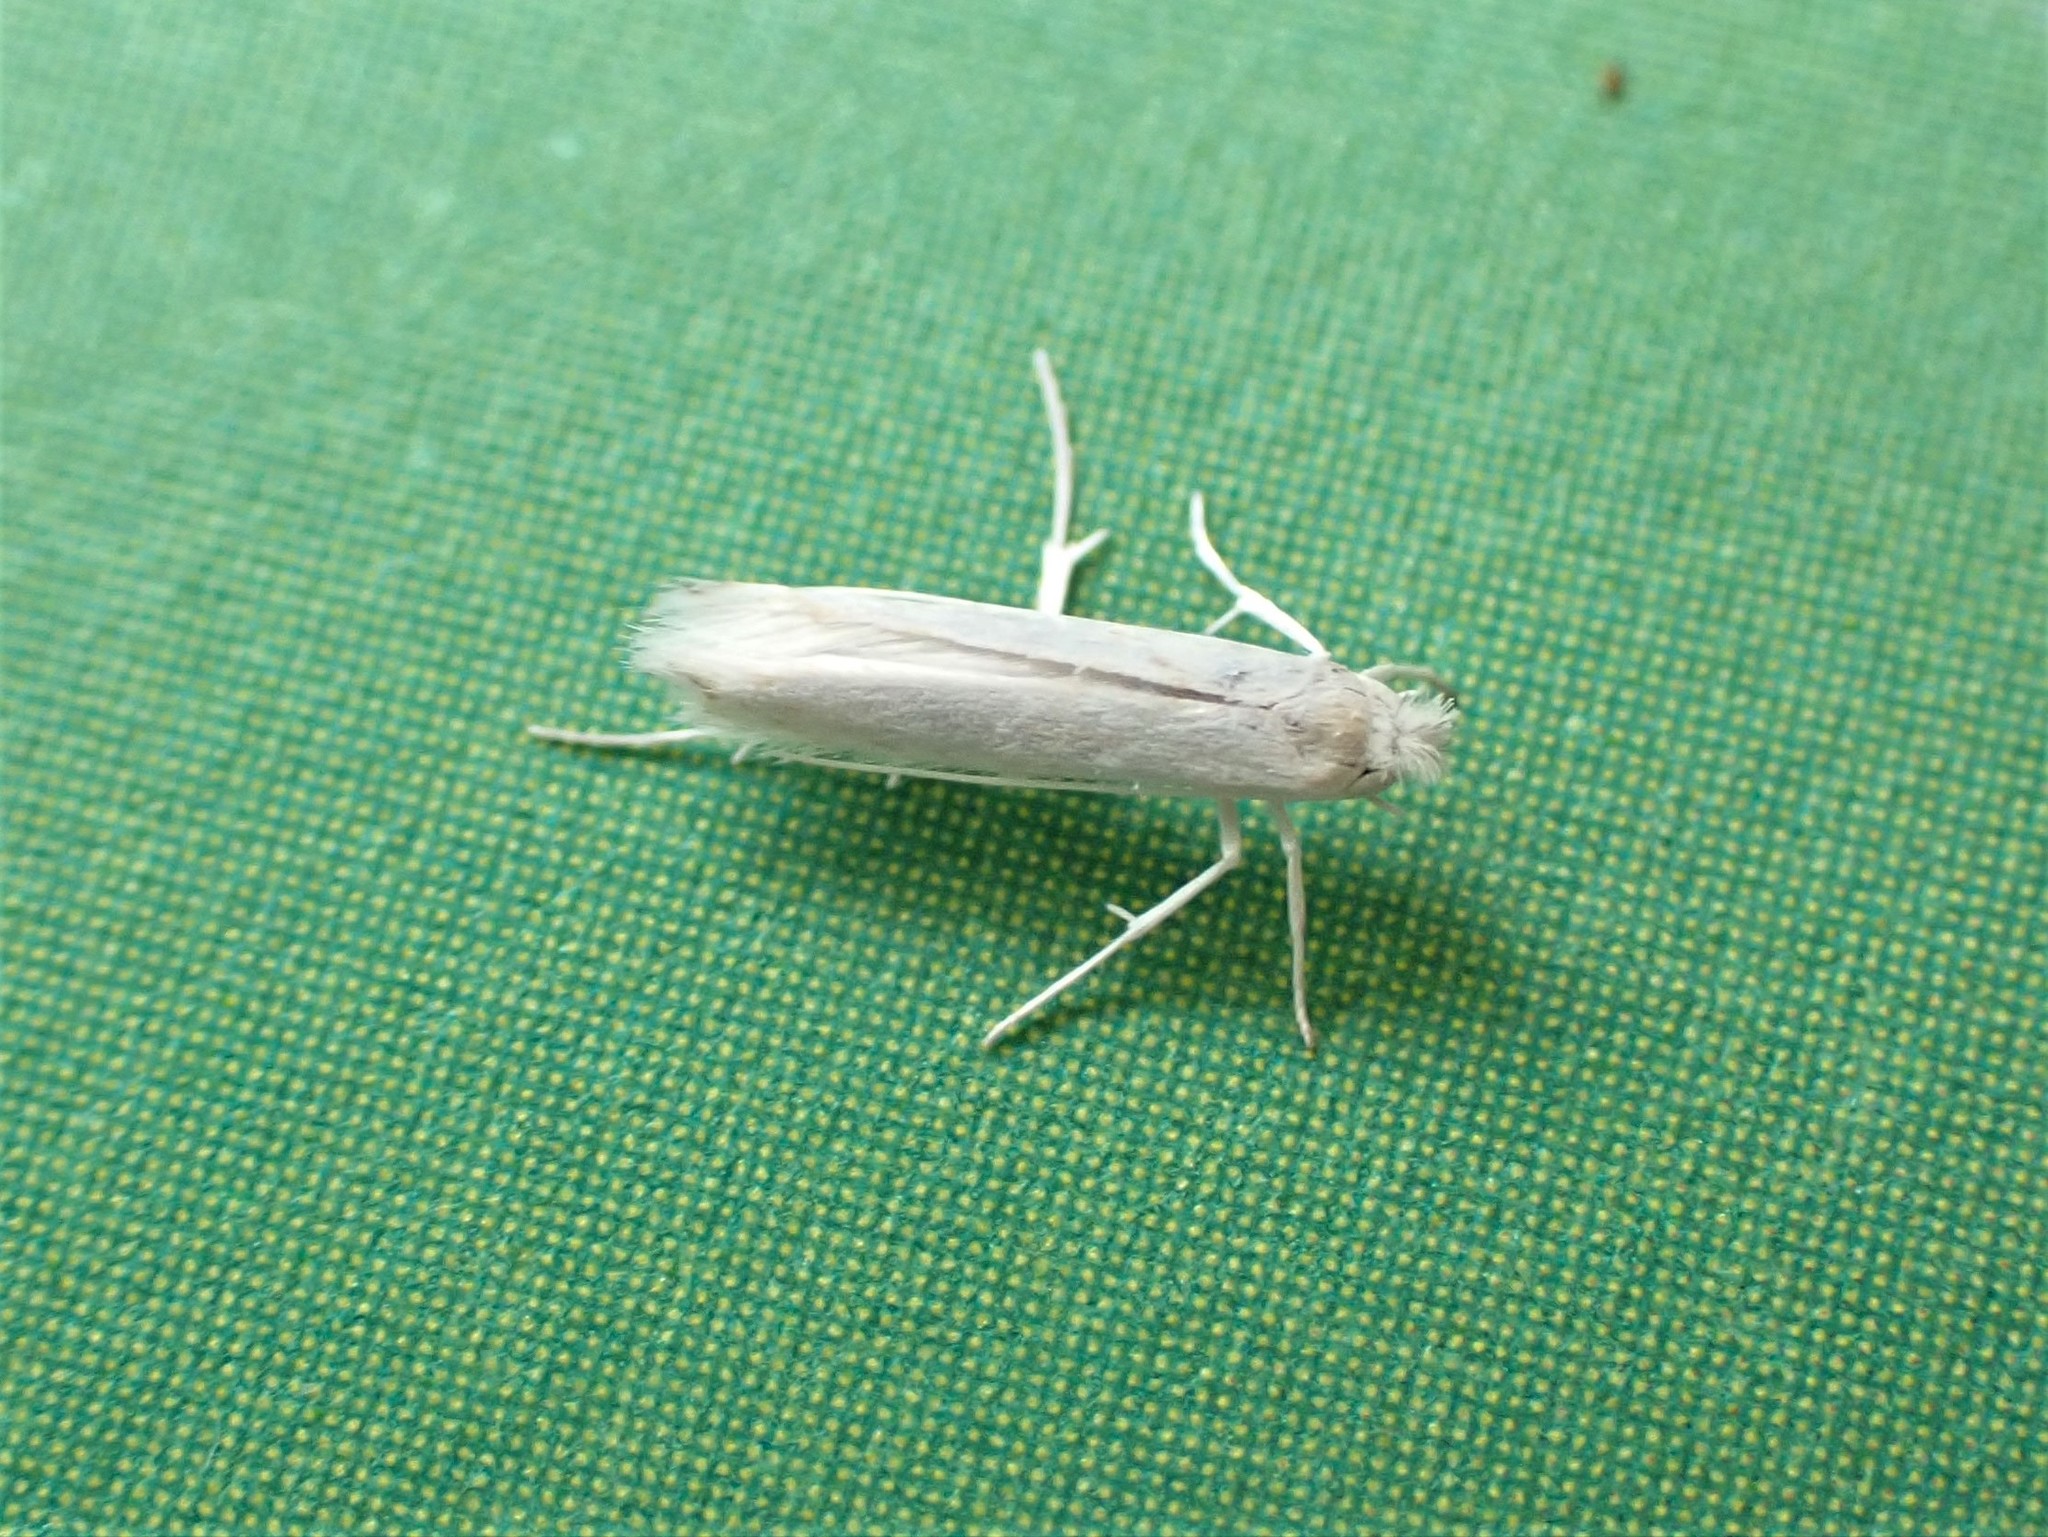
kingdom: Animalia
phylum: Arthropoda
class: Insecta
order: Lepidoptera
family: Lyonetiidae
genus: Stegommata
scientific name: Stegommata sulfuratella
